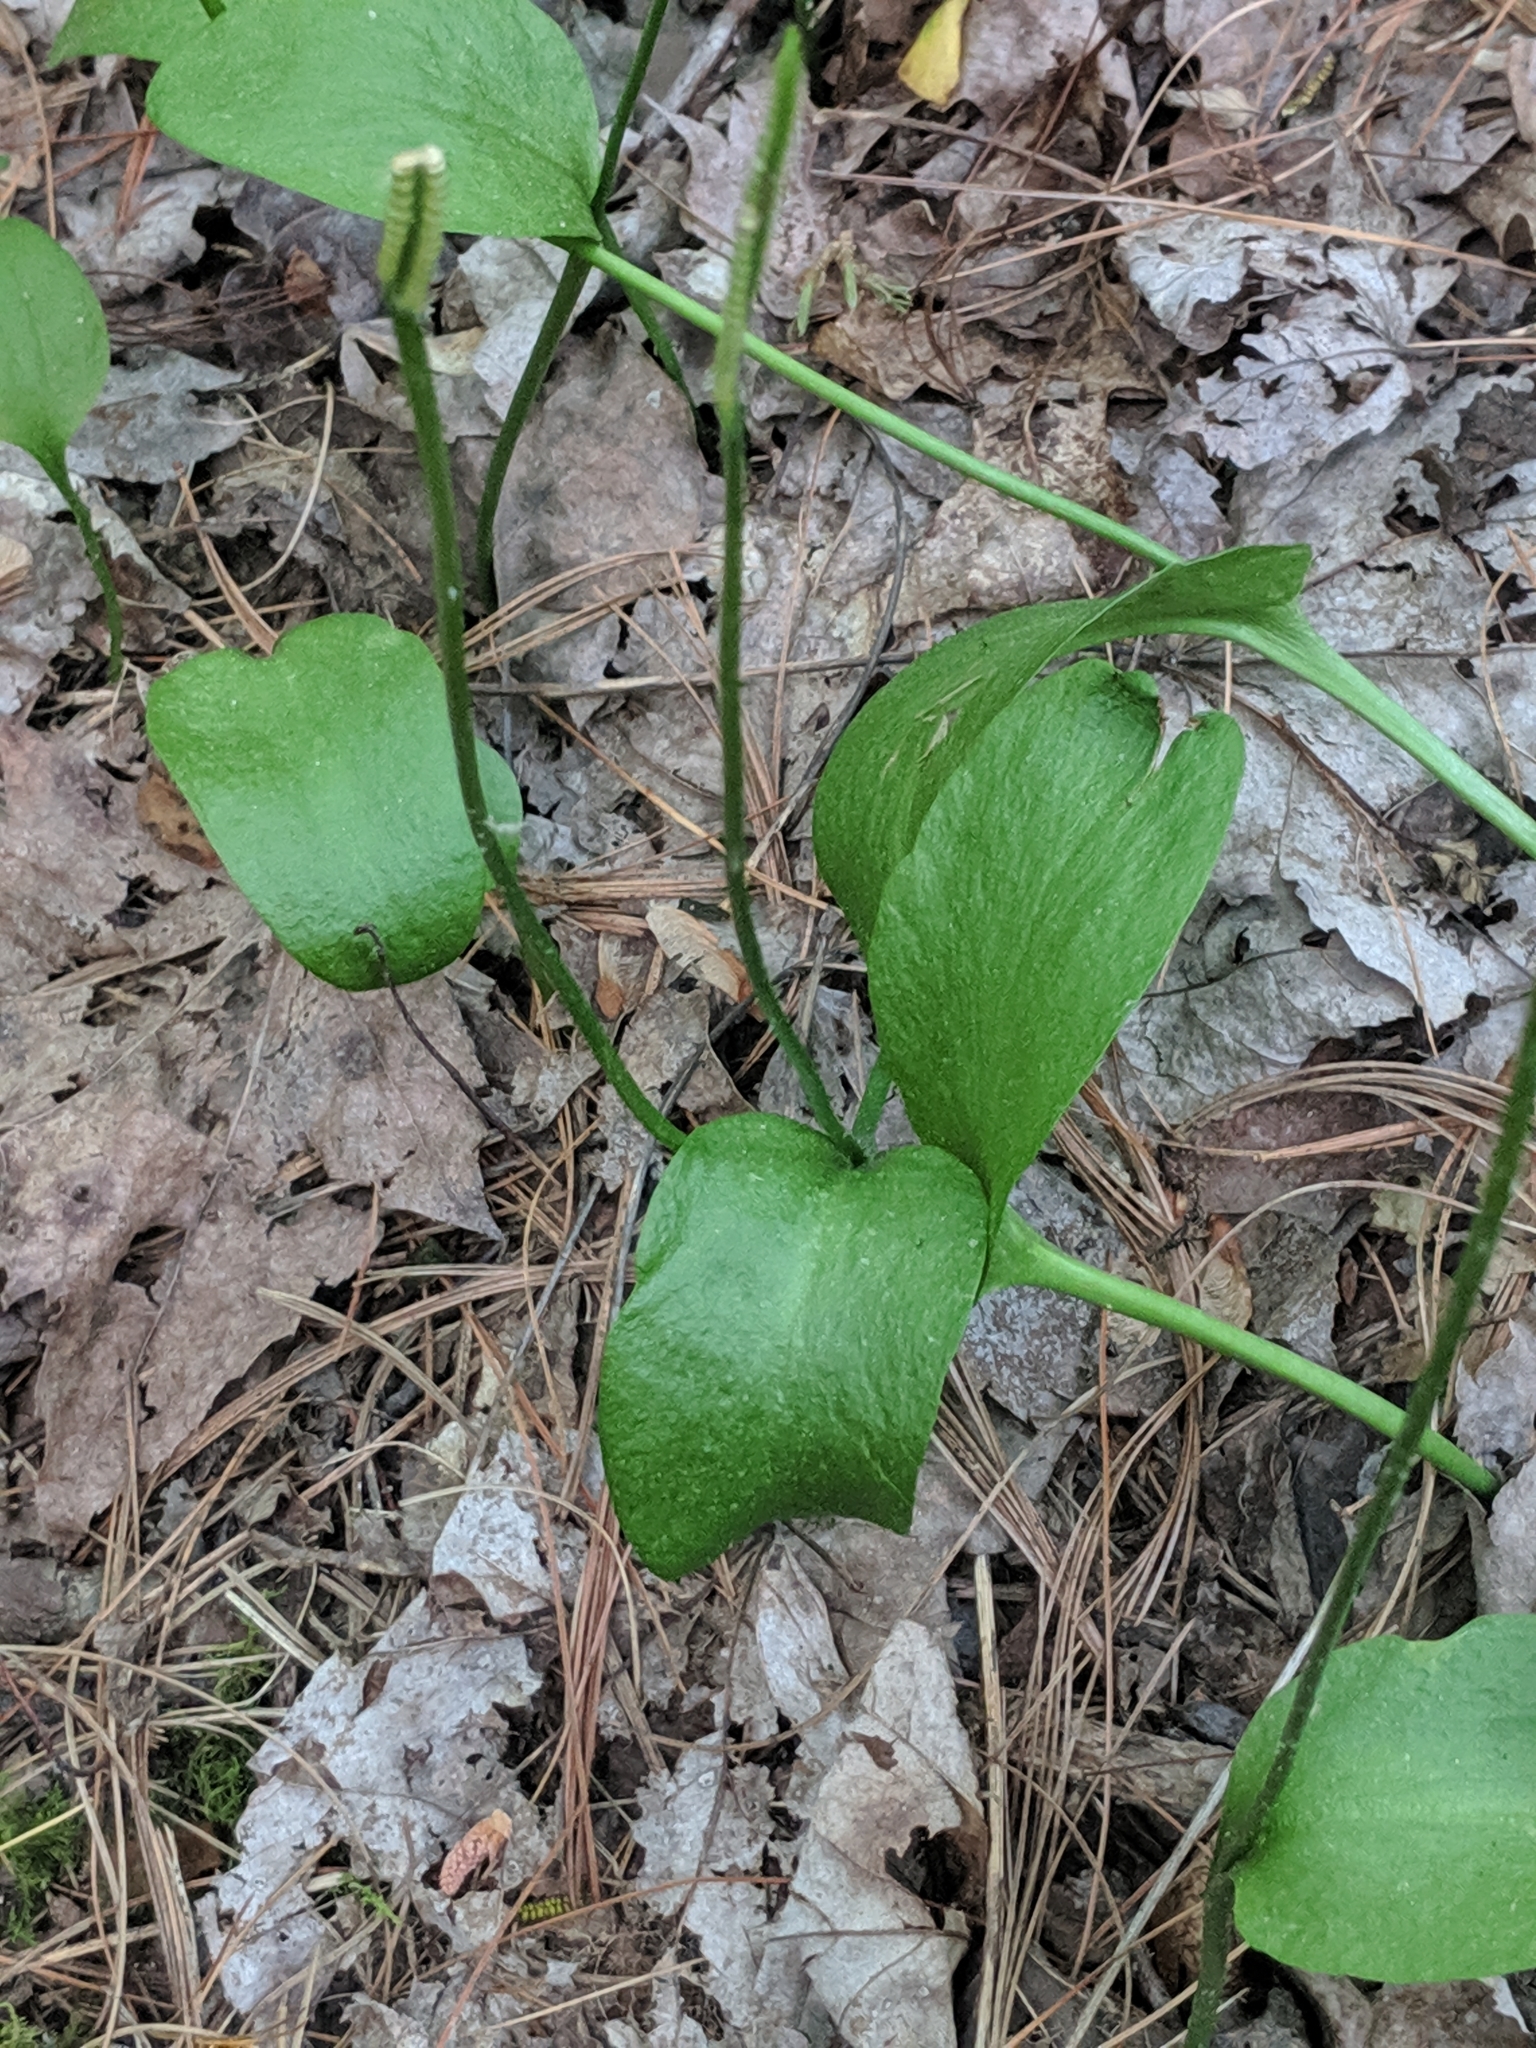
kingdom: Plantae
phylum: Tracheophyta
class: Polypodiopsida
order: Ophioglossales
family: Ophioglossaceae
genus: Ophioglossum
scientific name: Ophioglossum vulgatum
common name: Adder's-tongue
